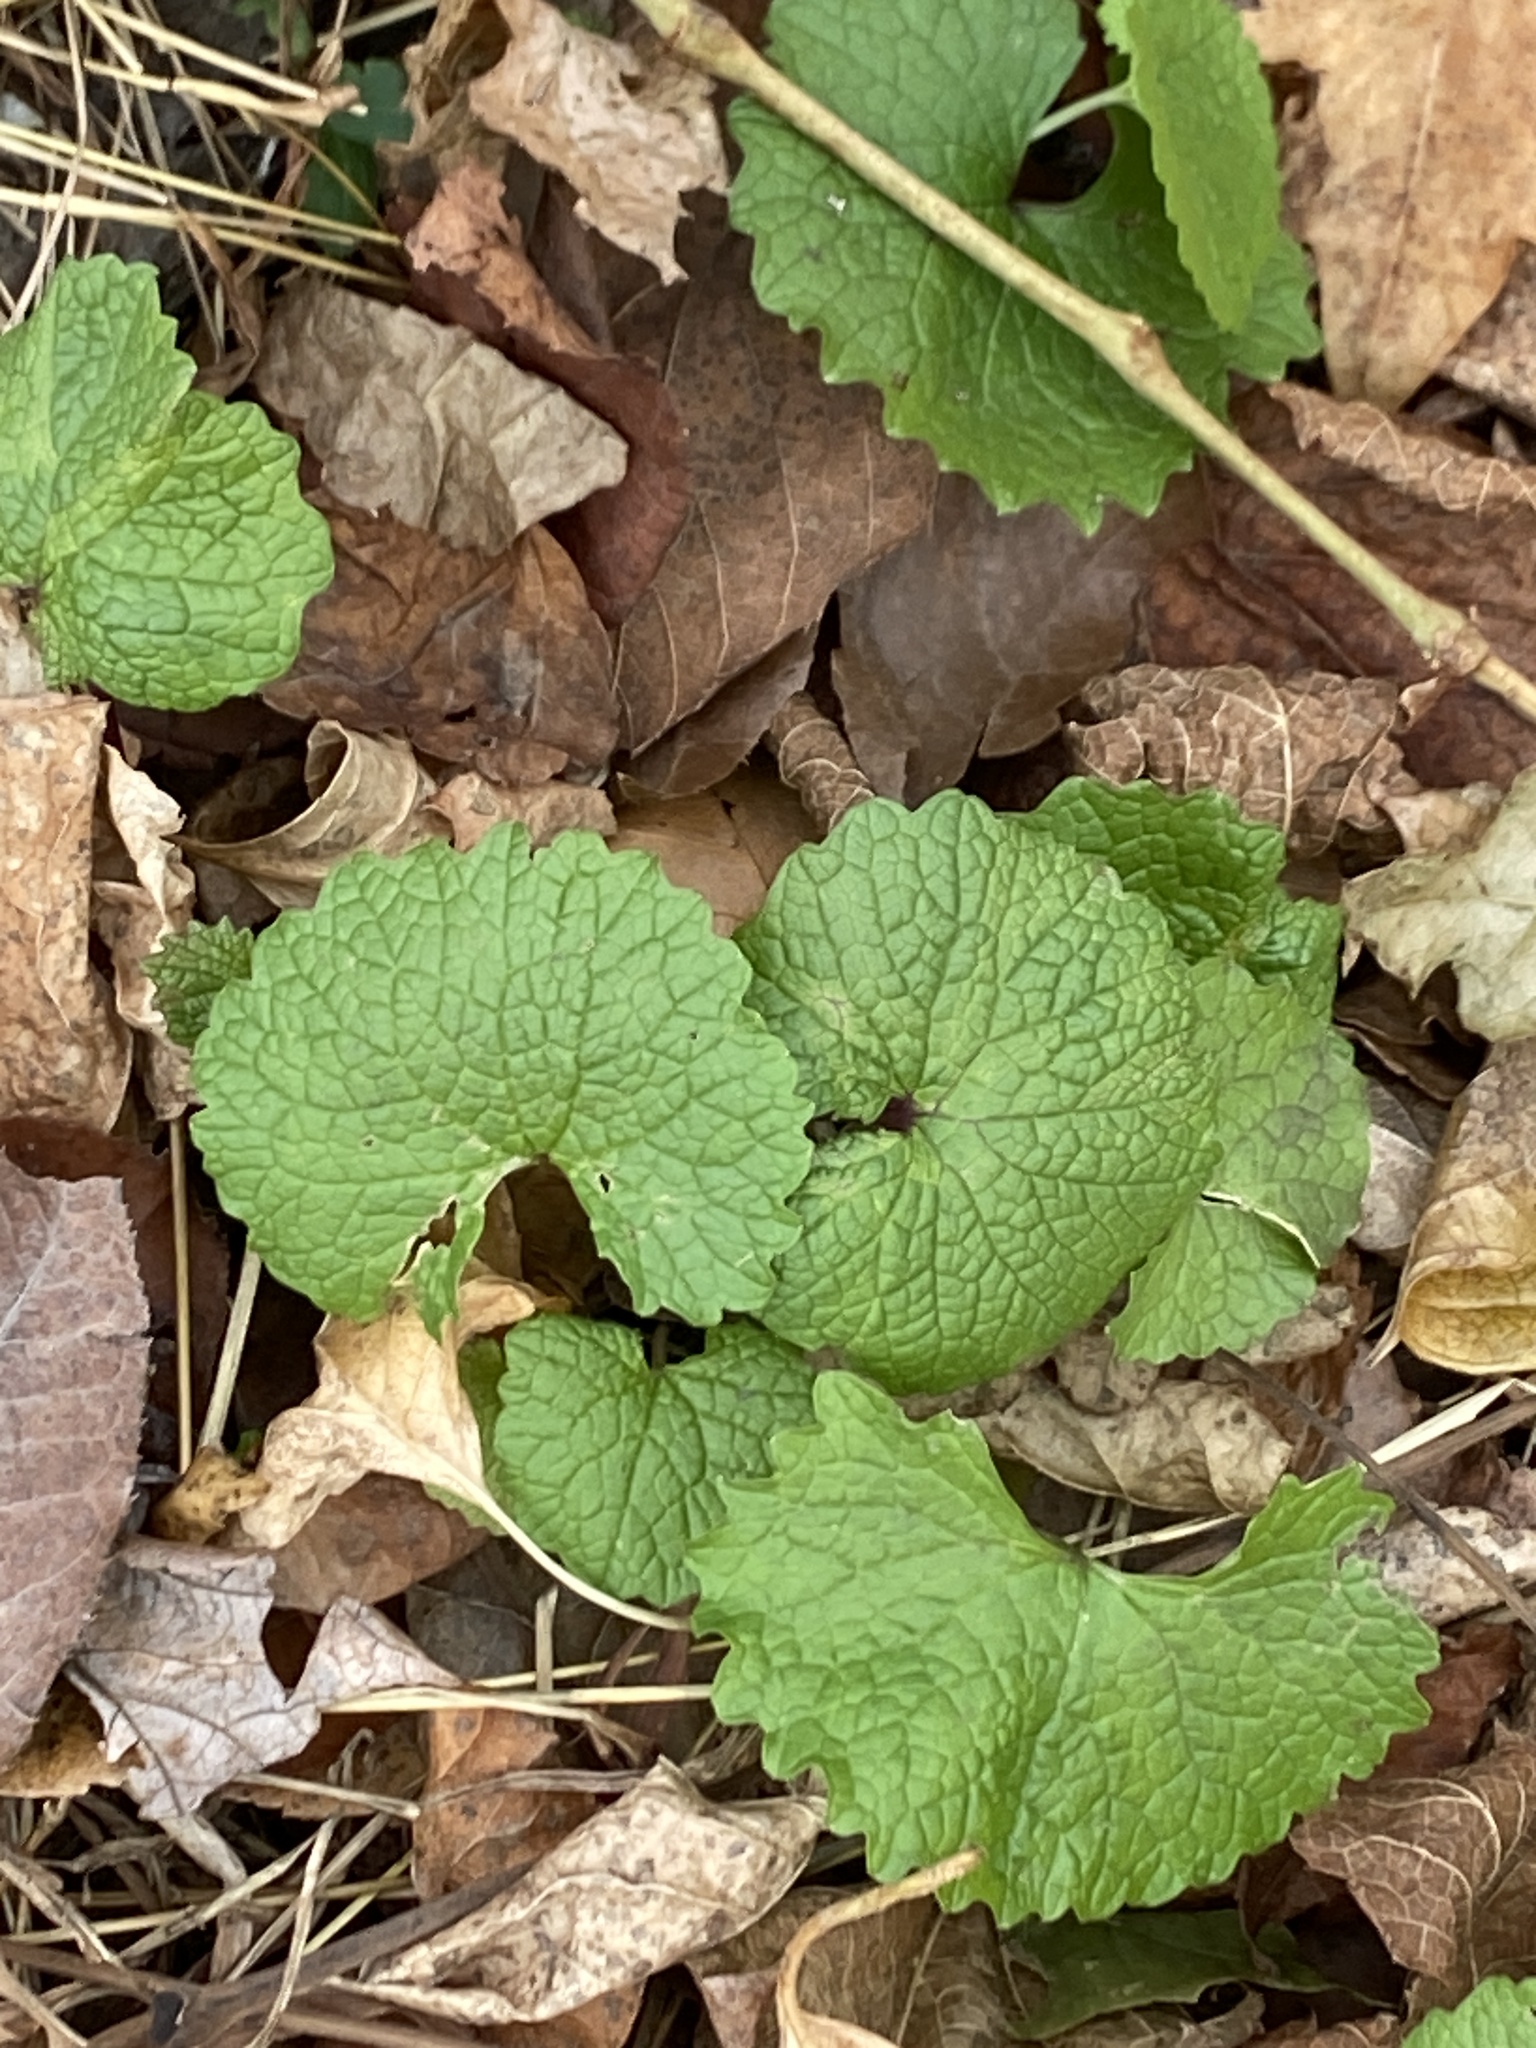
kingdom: Plantae
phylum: Tracheophyta
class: Magnoliopsida
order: Brassicales
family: Brassicaceae
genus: Alliaria
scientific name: Alliaria petiolata
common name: Garlic mustard
